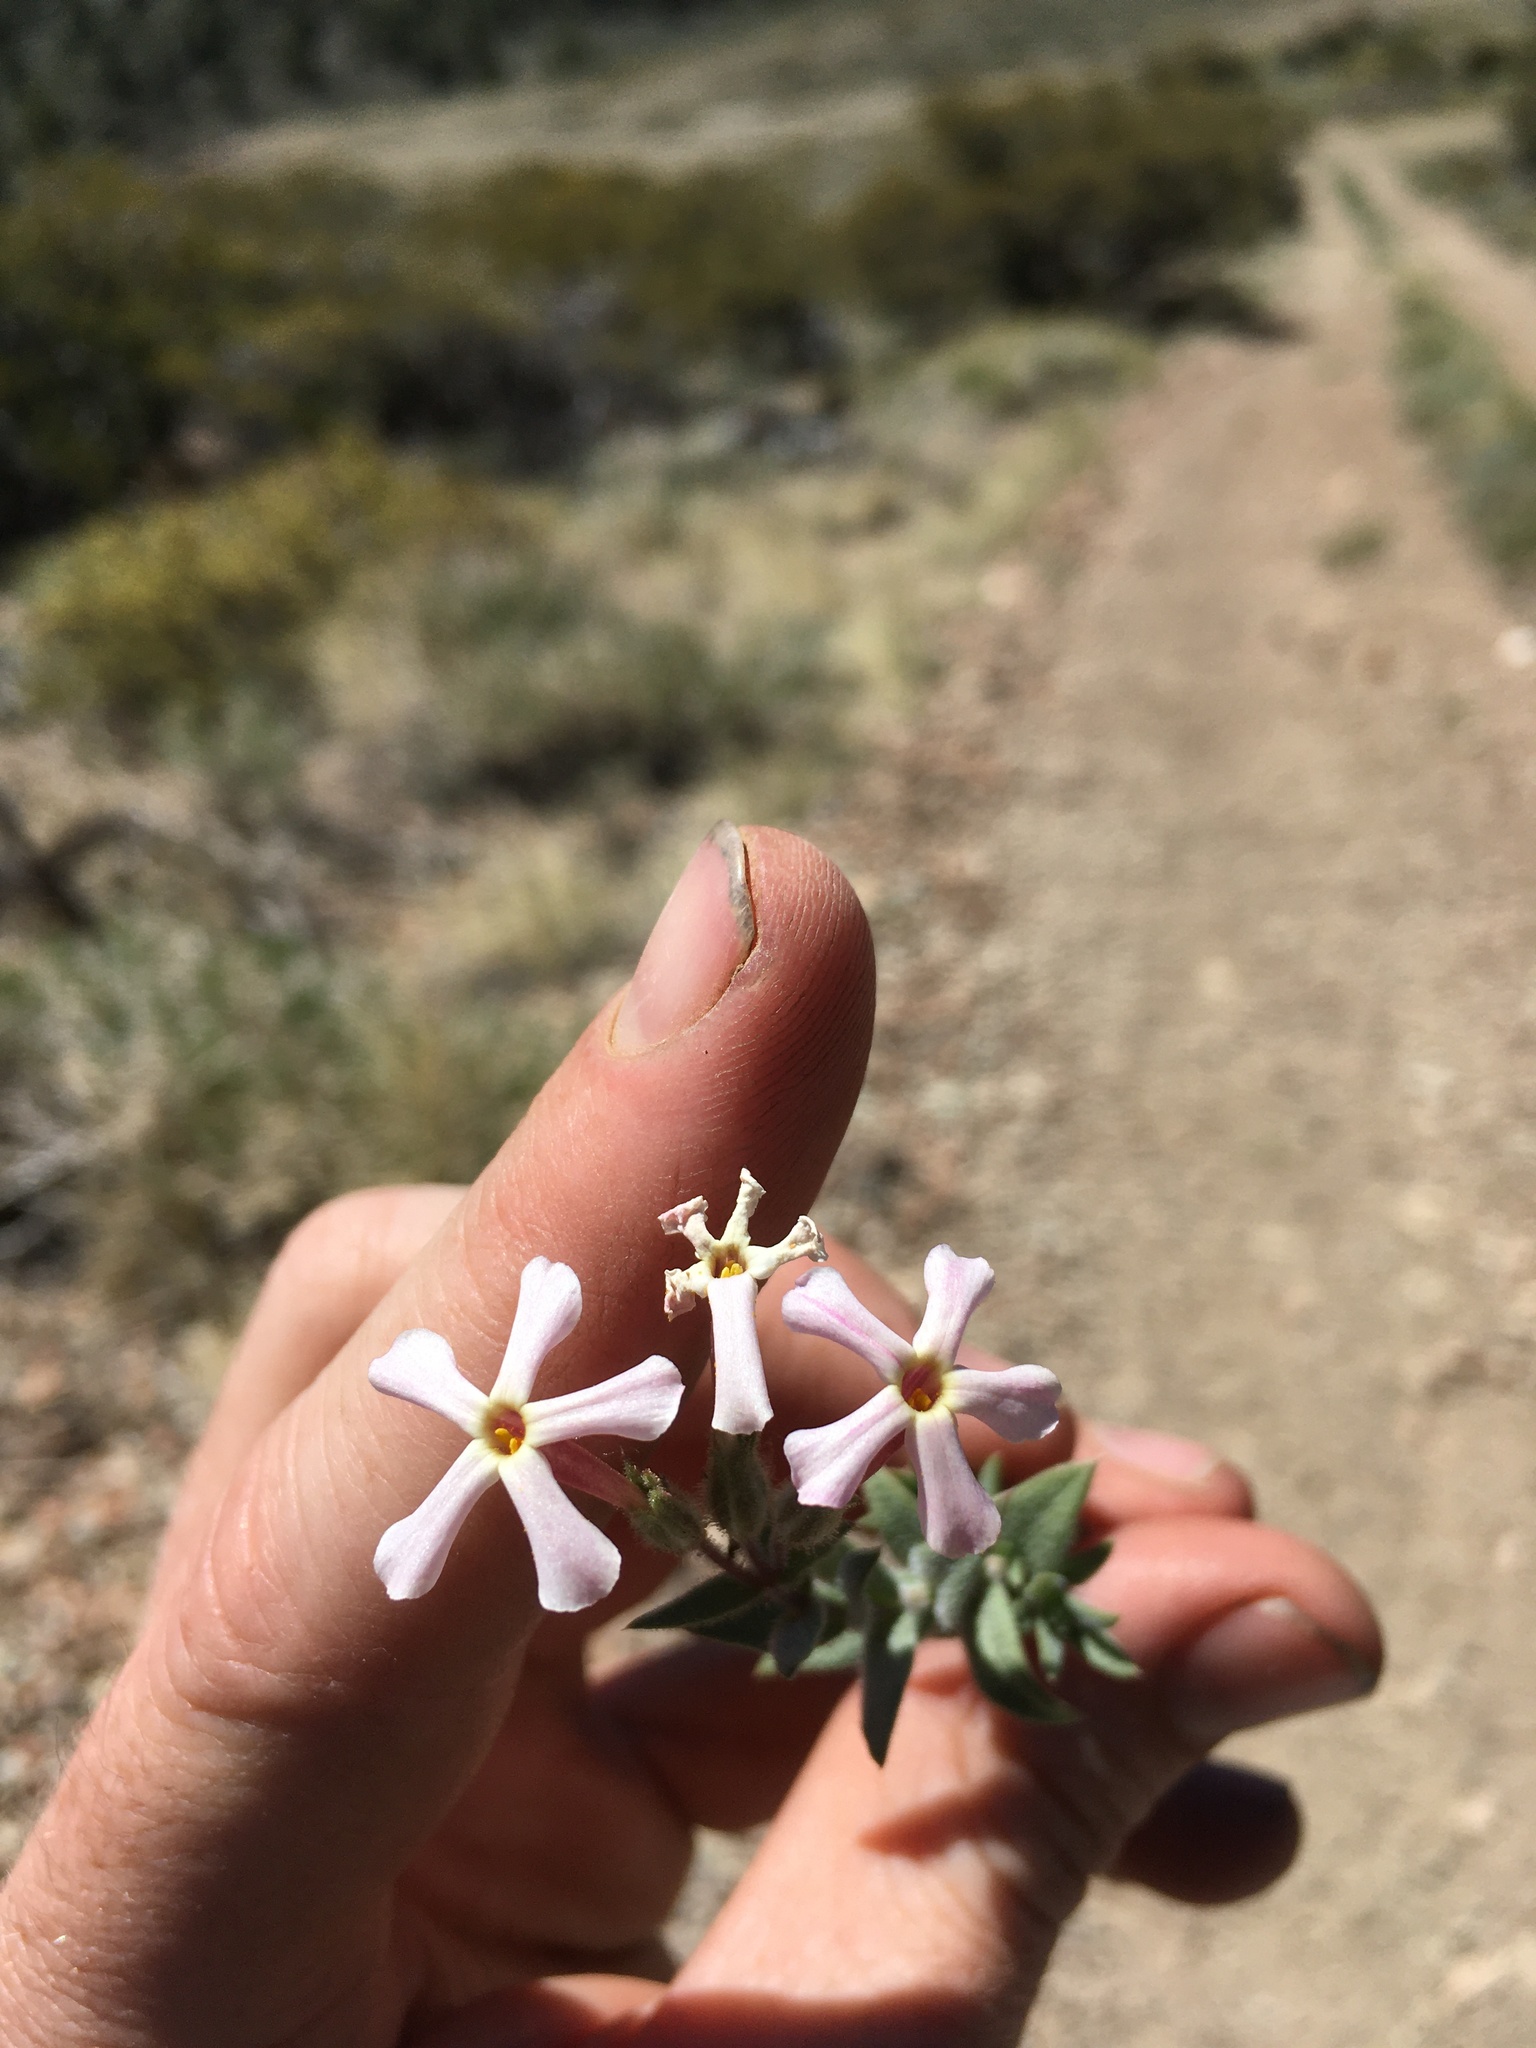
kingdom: Plantae
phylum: Tracheophyta
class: Magnoliopsida
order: Ericales
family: Polemoniaceae
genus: Phlox
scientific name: Phlox longifolia
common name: Longleaf phlox
